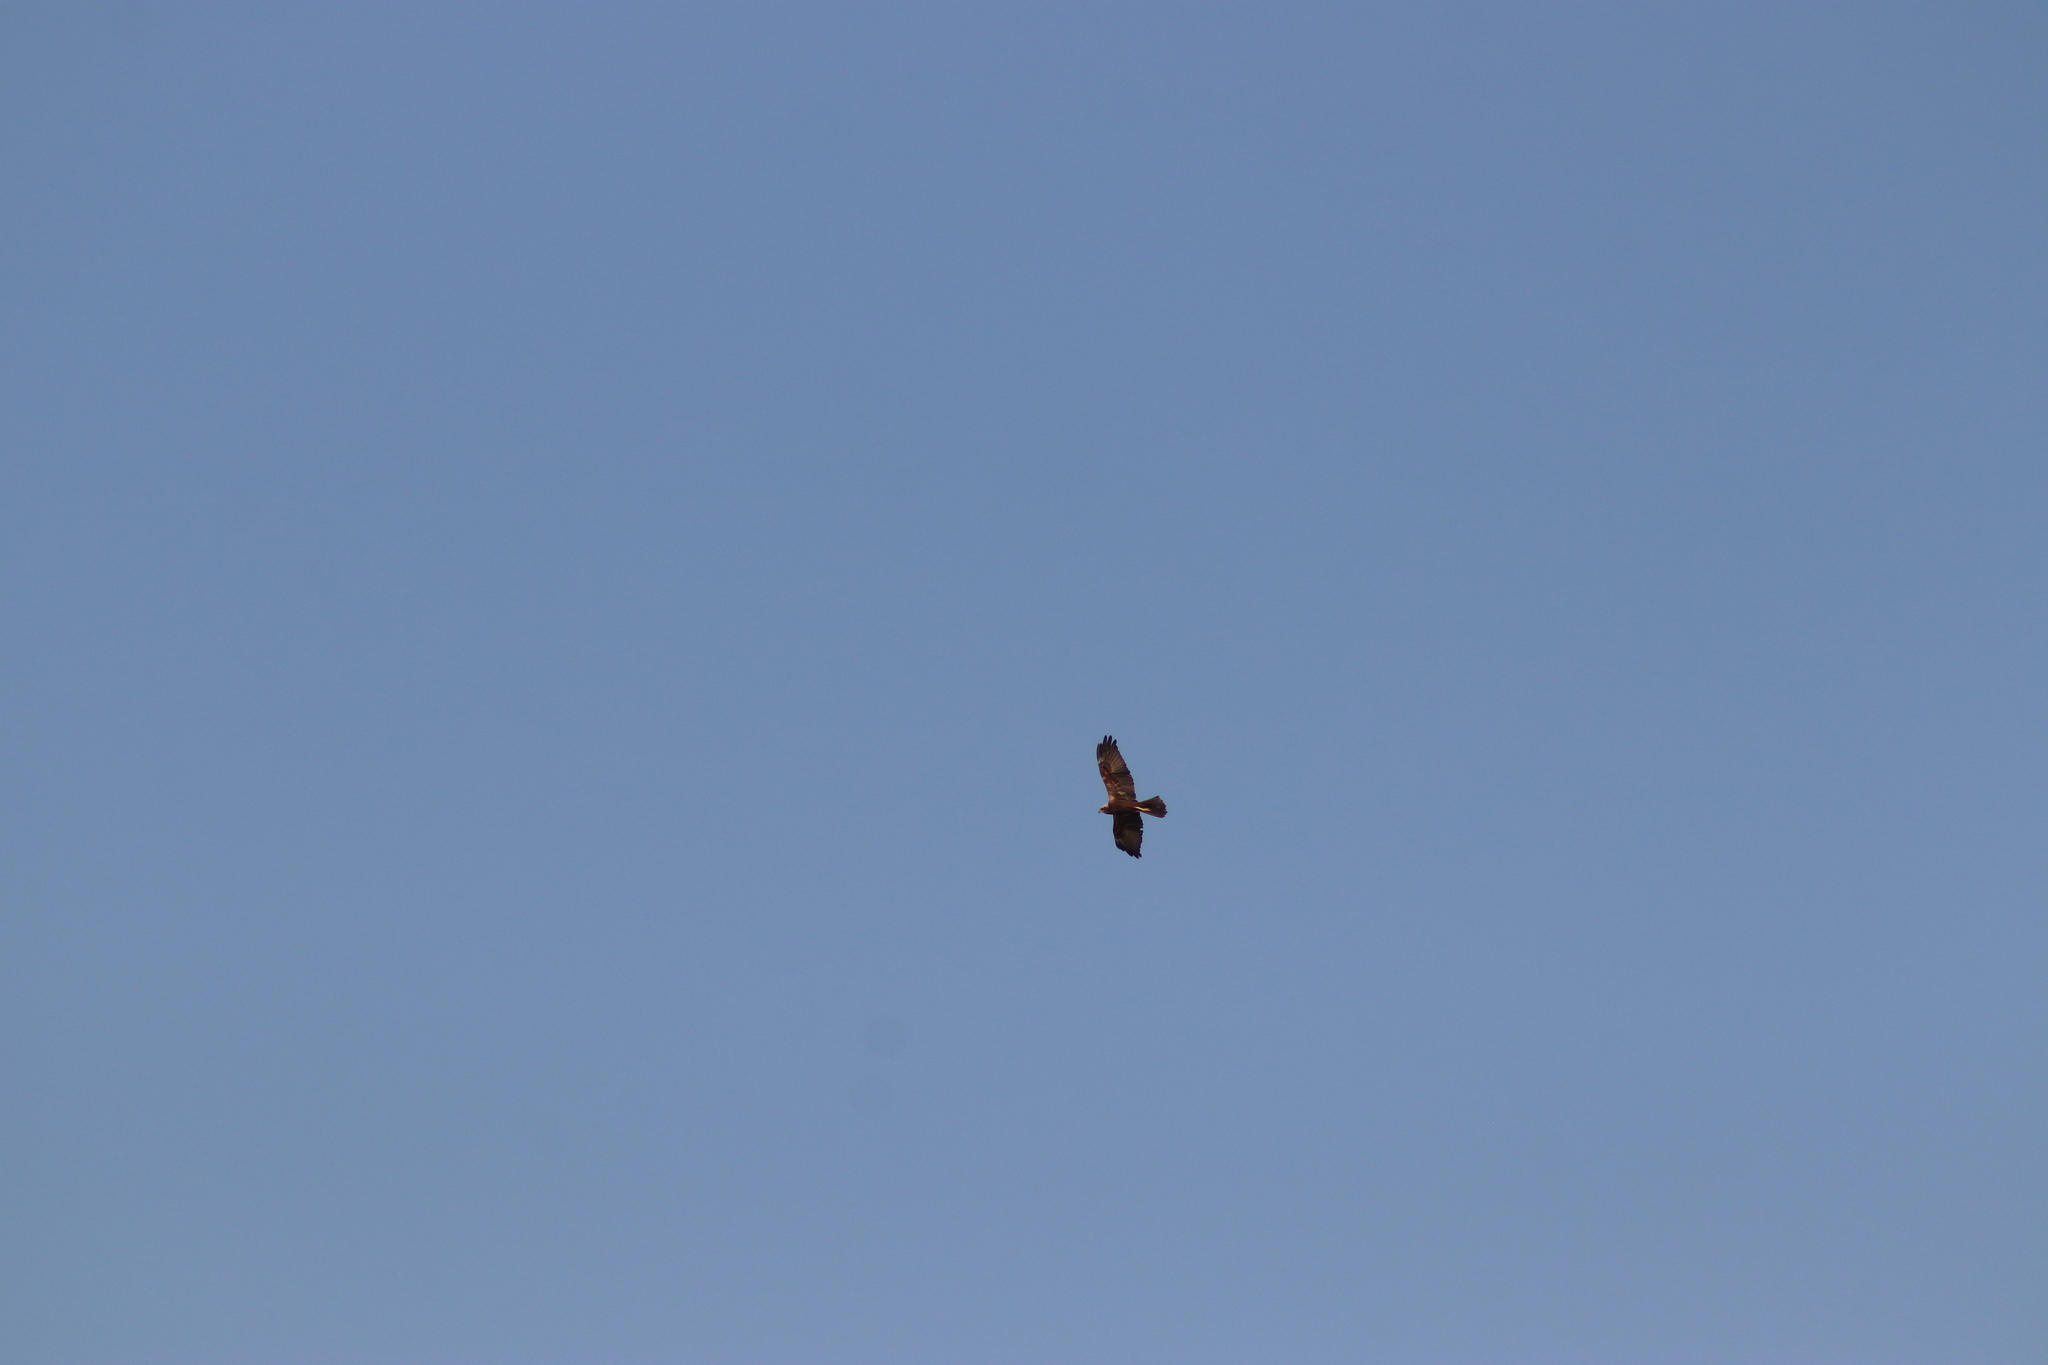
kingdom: Animalia
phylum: Chordata
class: Aves
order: Accipitriformes
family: Accipitridae
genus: Circus
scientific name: Circus aeruginosus
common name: Western marsh harrier
